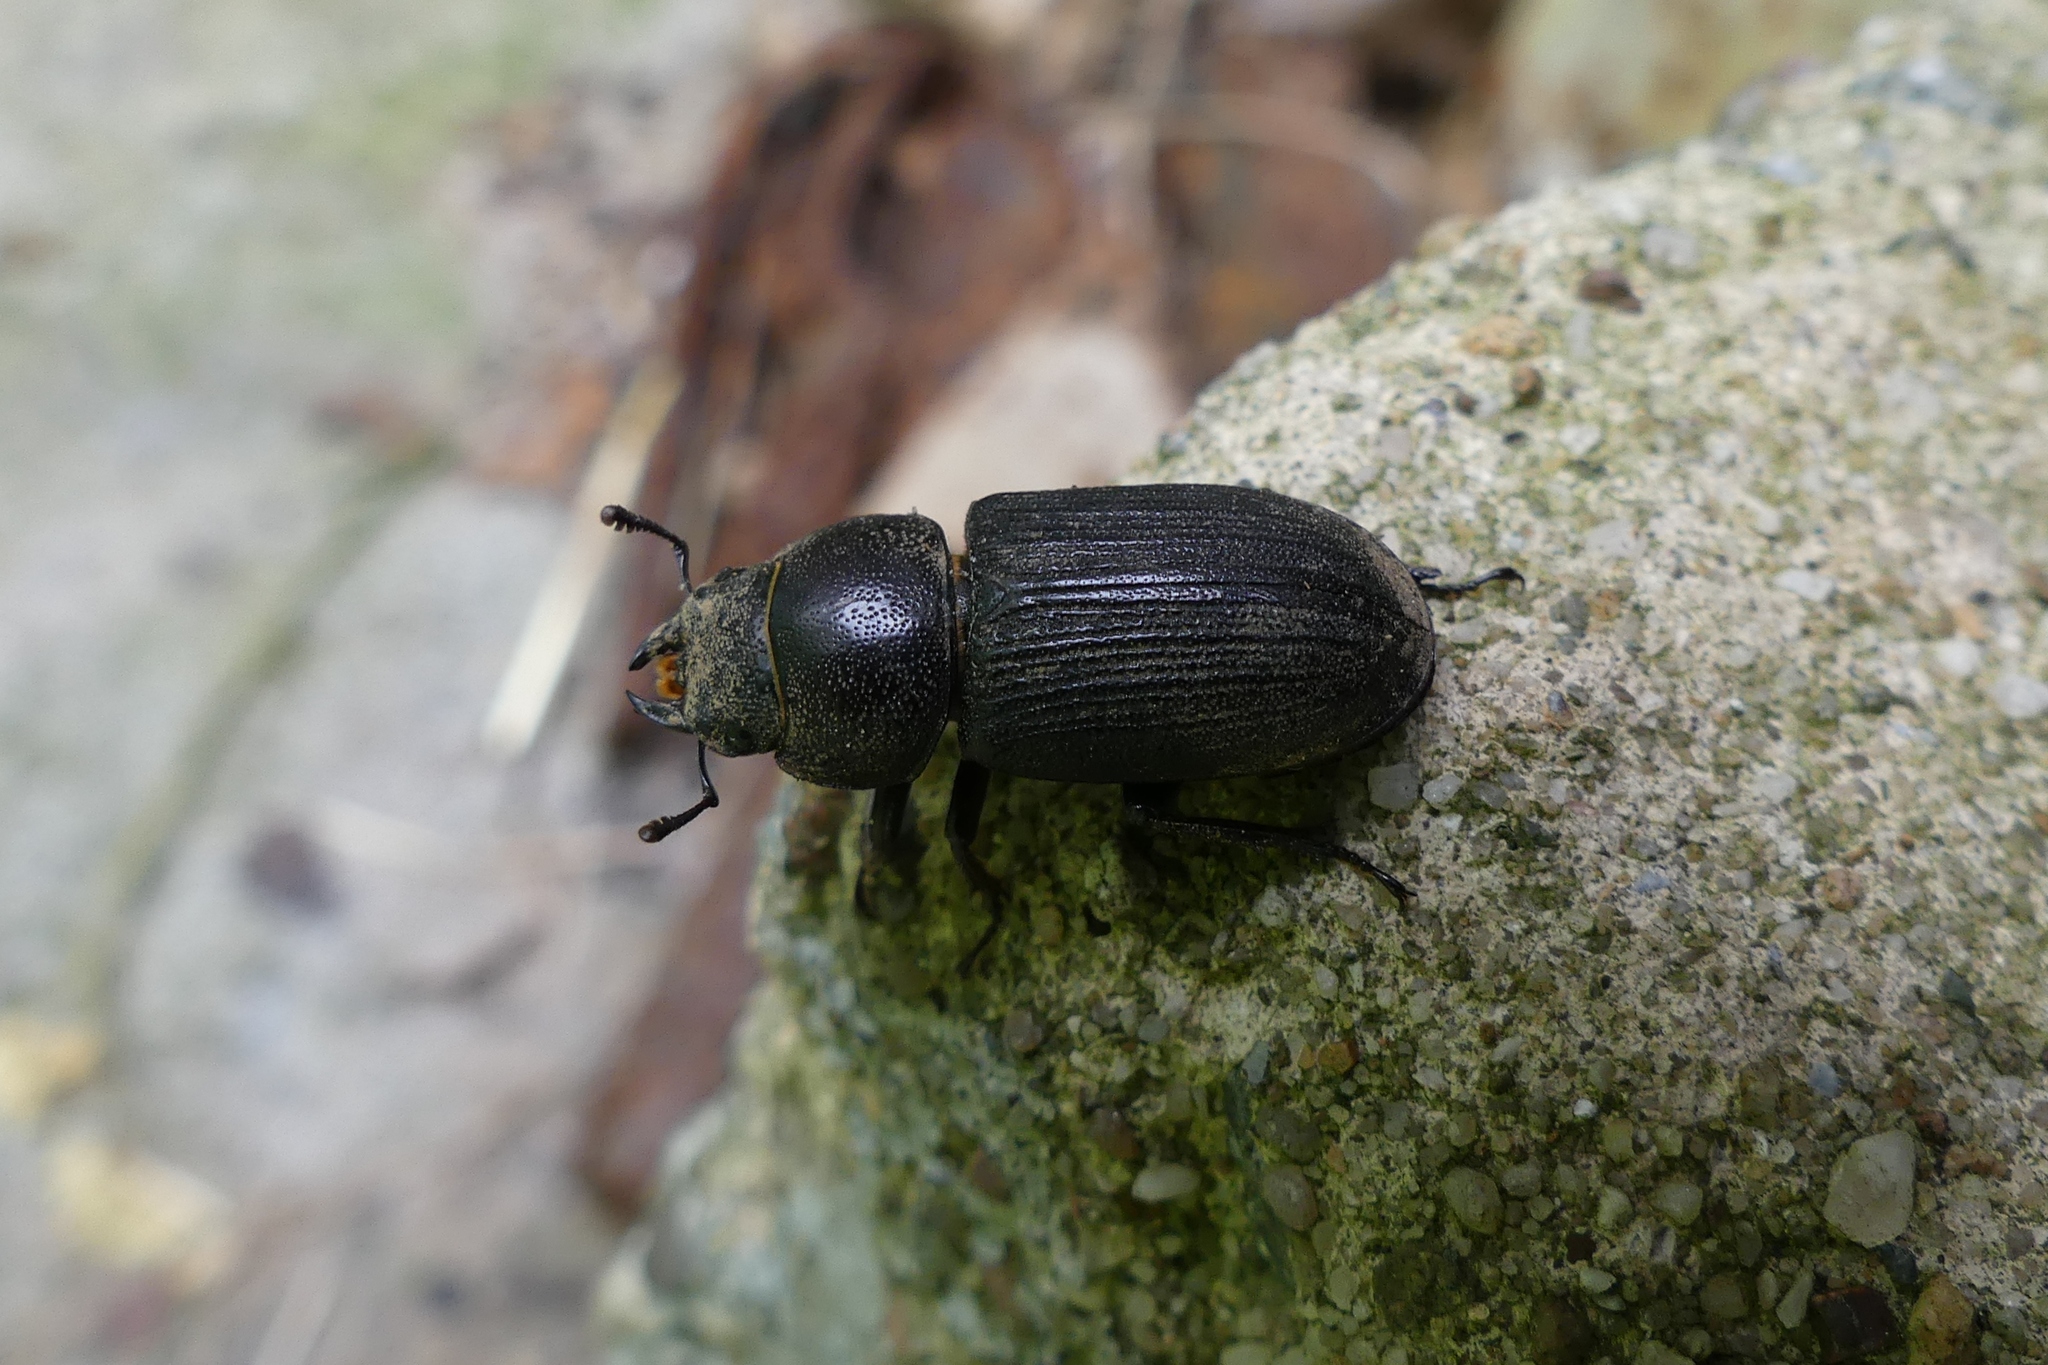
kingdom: Animalia
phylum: Arthropoda
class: Insecta
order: Coleoptera
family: Lucanidae
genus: Dorcus
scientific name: Dorcus parallelus
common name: Antelope beetle
